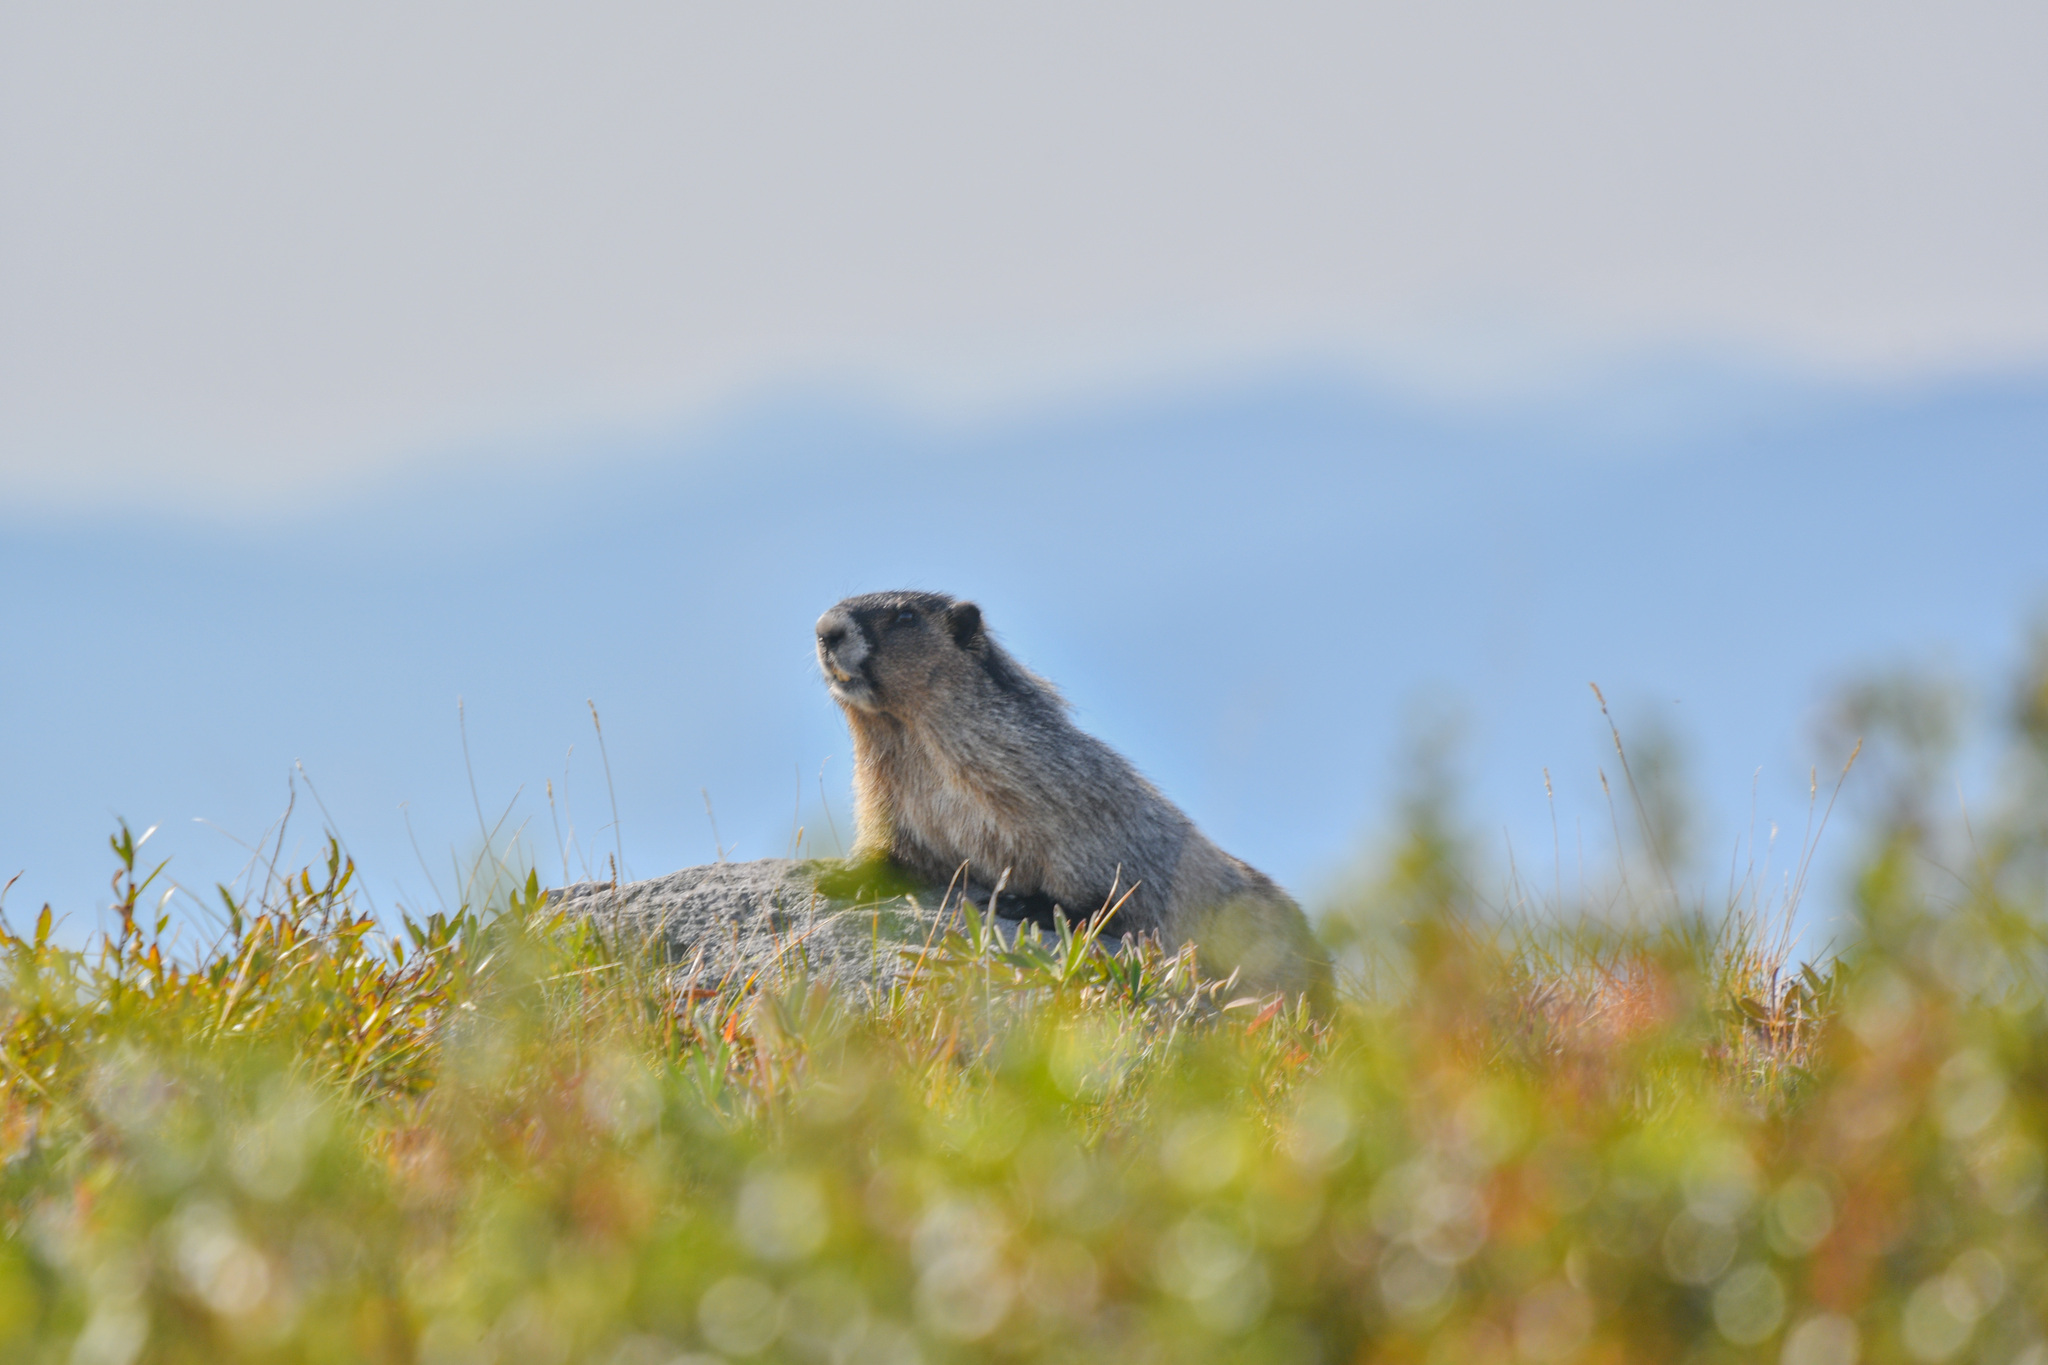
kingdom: Animalia
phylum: Chordata
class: Mammalia
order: Rodentia
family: Sciuridae
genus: Marmota
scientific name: Marmota caligata
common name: Hoary marmot
